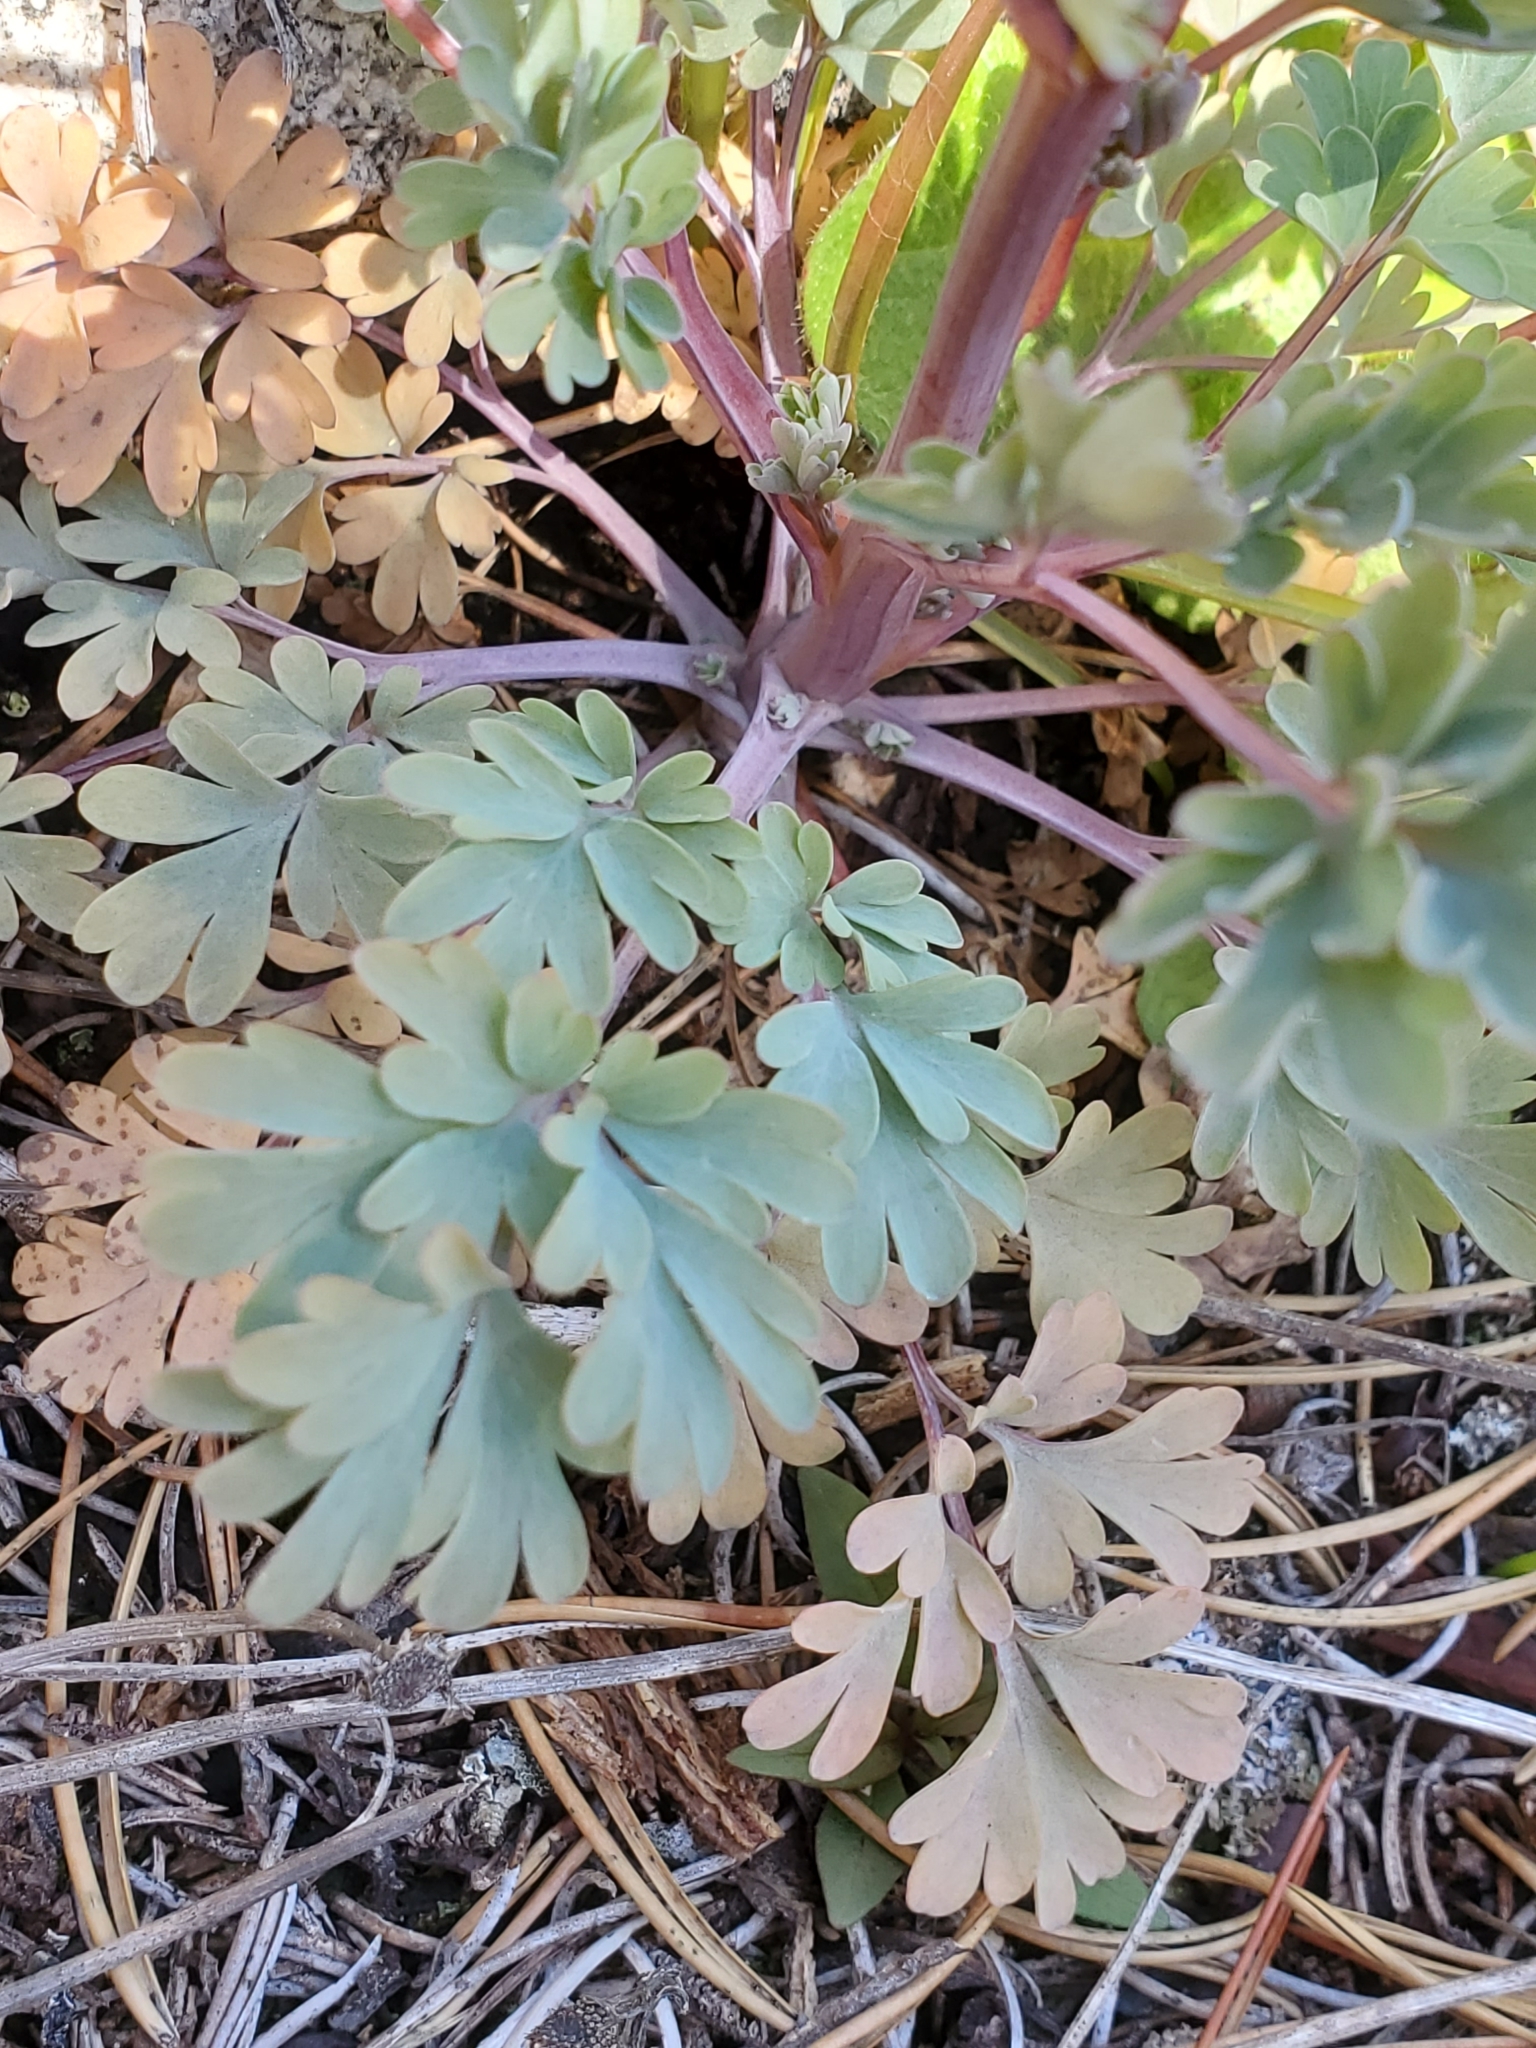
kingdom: Plantae
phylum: Tracheophyta
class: Magnoliopsida
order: Ranunculales
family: Papaveraceae
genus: Capnoides
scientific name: Capnoides sempervirens
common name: Rock harlequin
